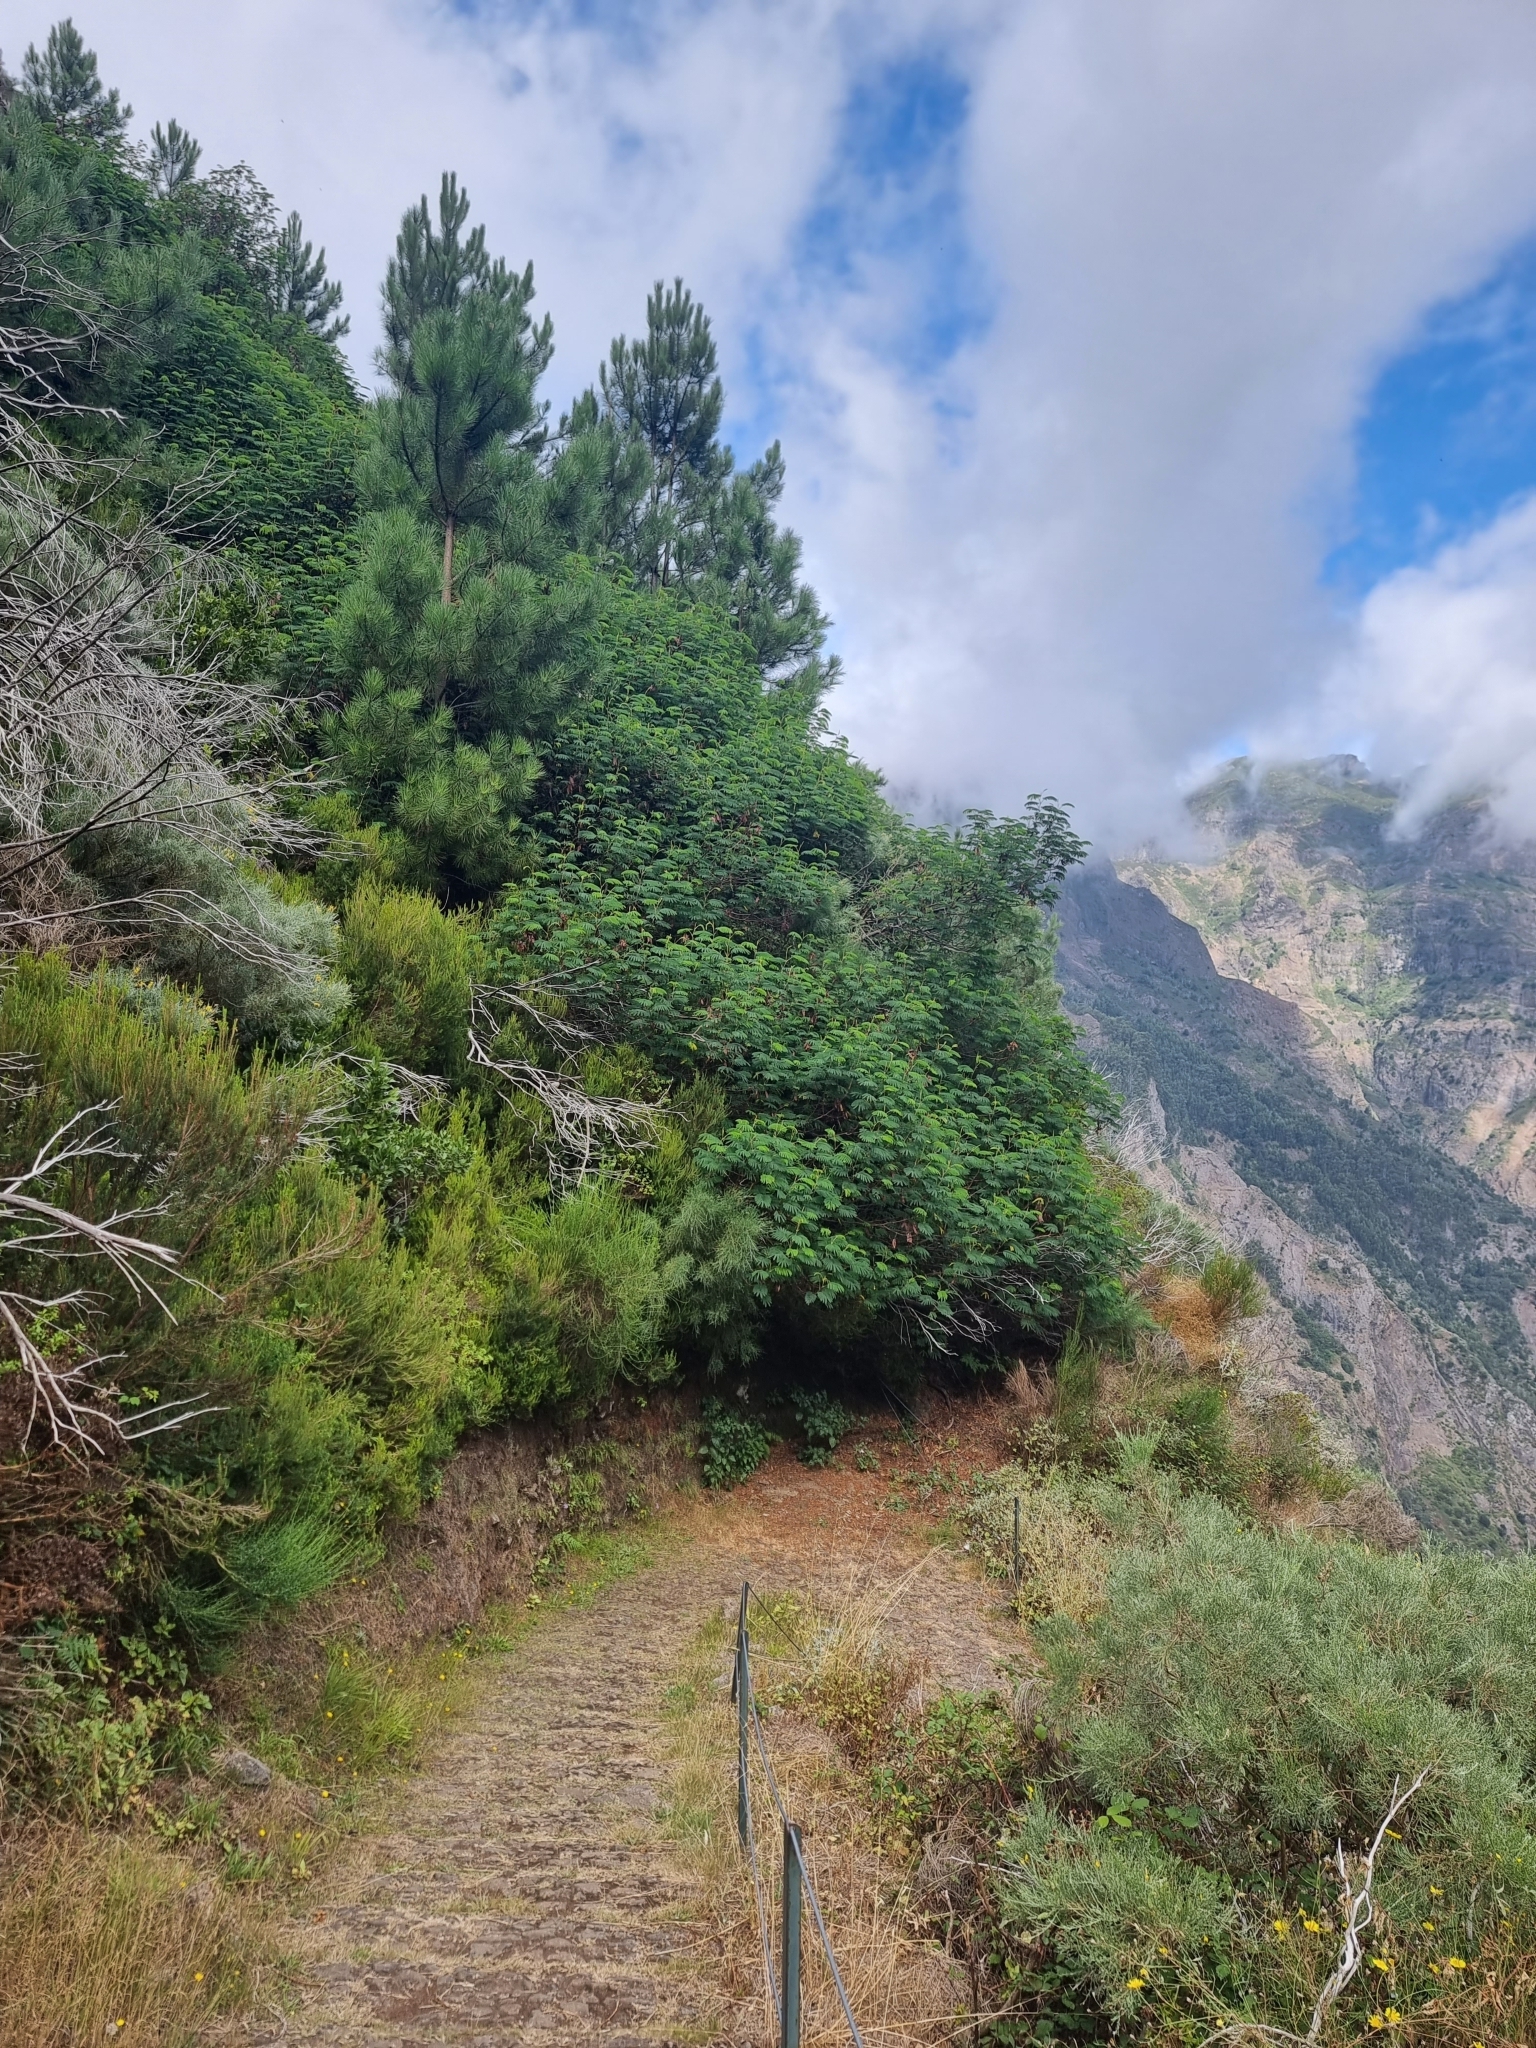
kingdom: Plantae
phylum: Tracheophyta
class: Magnoliopsida
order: Fabales
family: Fabaceae
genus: Paraserianthes
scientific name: Paraserianthes lophantha
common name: Plume albizia
